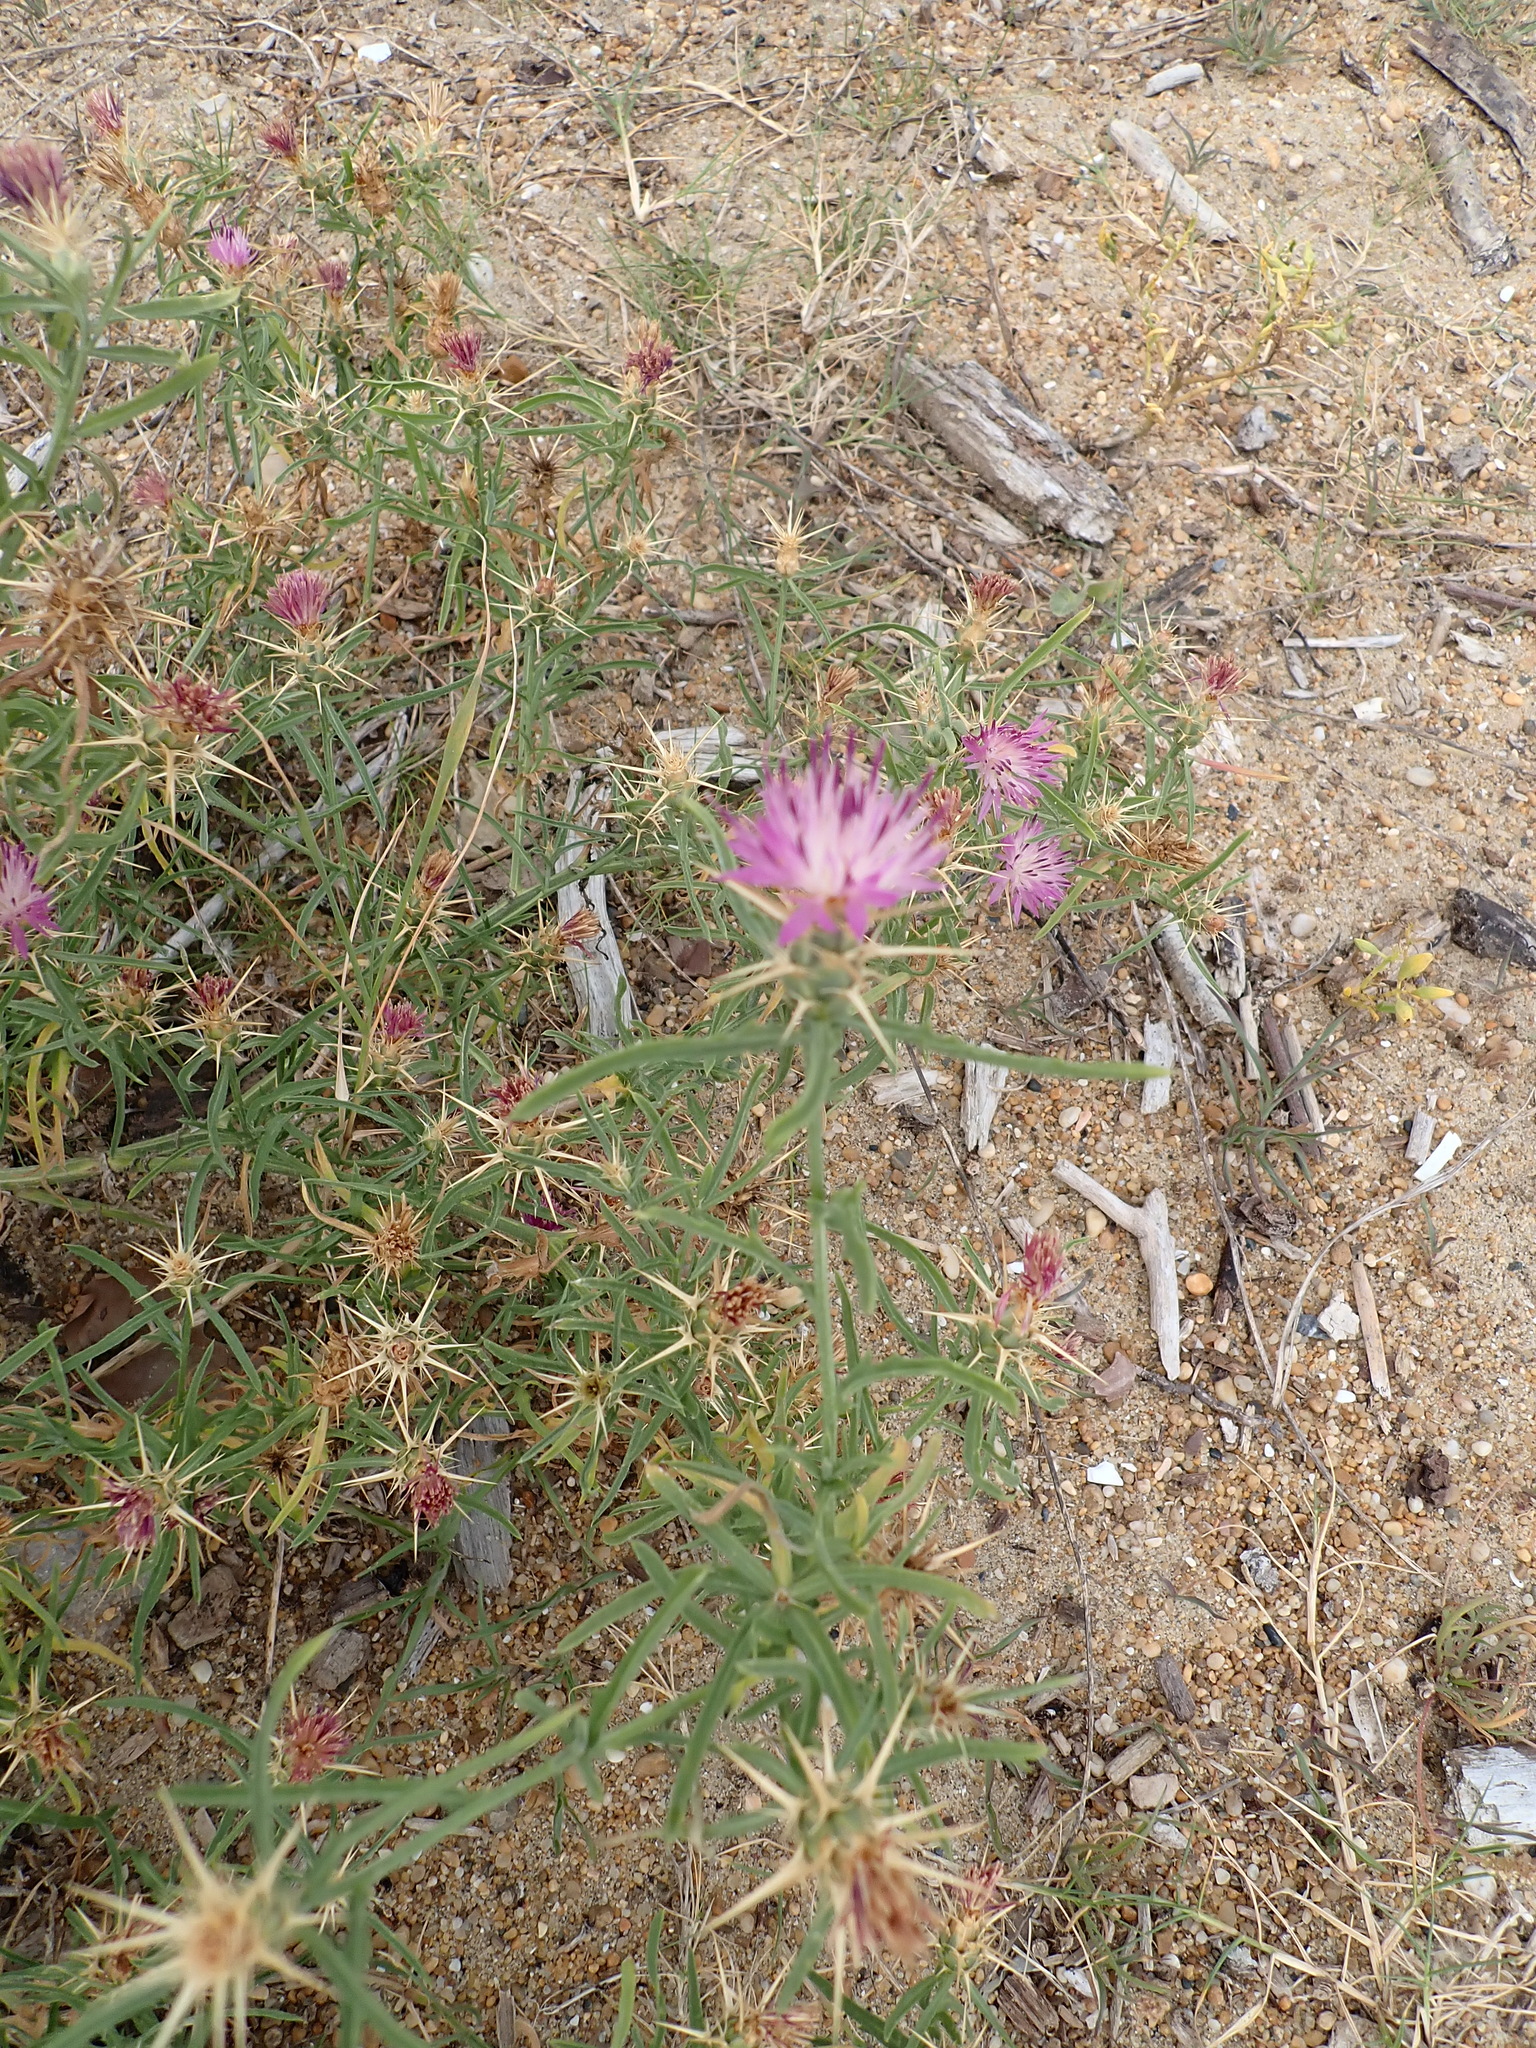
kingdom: Plantae
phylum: Tracheophyta
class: Magnoliopsida
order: Asterales
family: Asteraceae
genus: Centaurea
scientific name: Centaurea calcitrapa
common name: Red star-thistle
